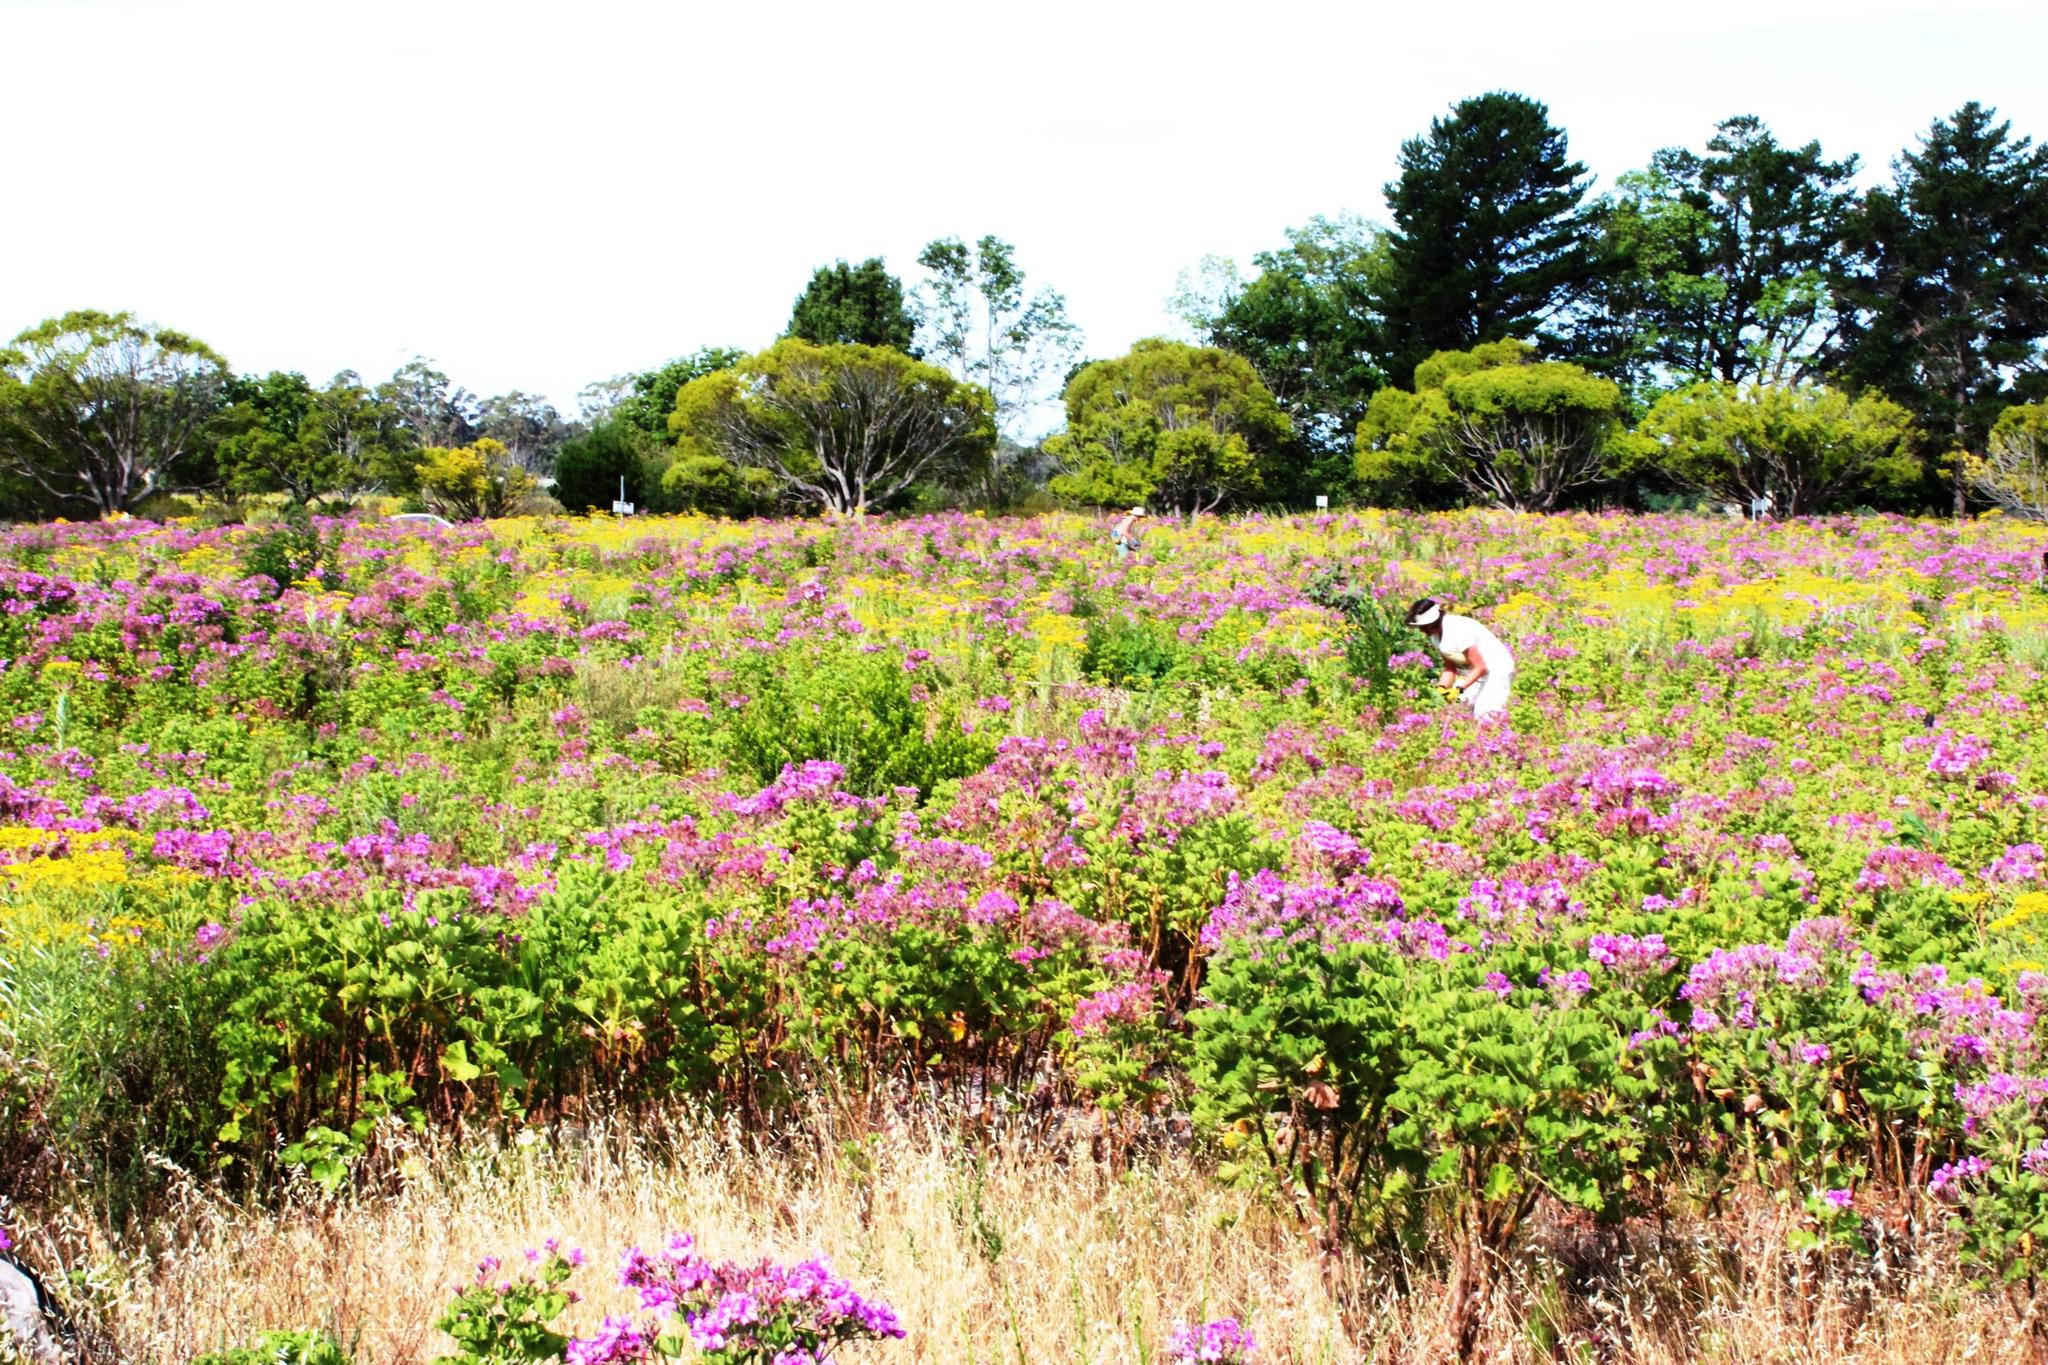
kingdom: Plantae
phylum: Tracheophyta
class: Magnoliopsida
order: Geraniales
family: Geraniaceae
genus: Pelargonium
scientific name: Pelargonium cucullatum
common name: Tree pelargonium
